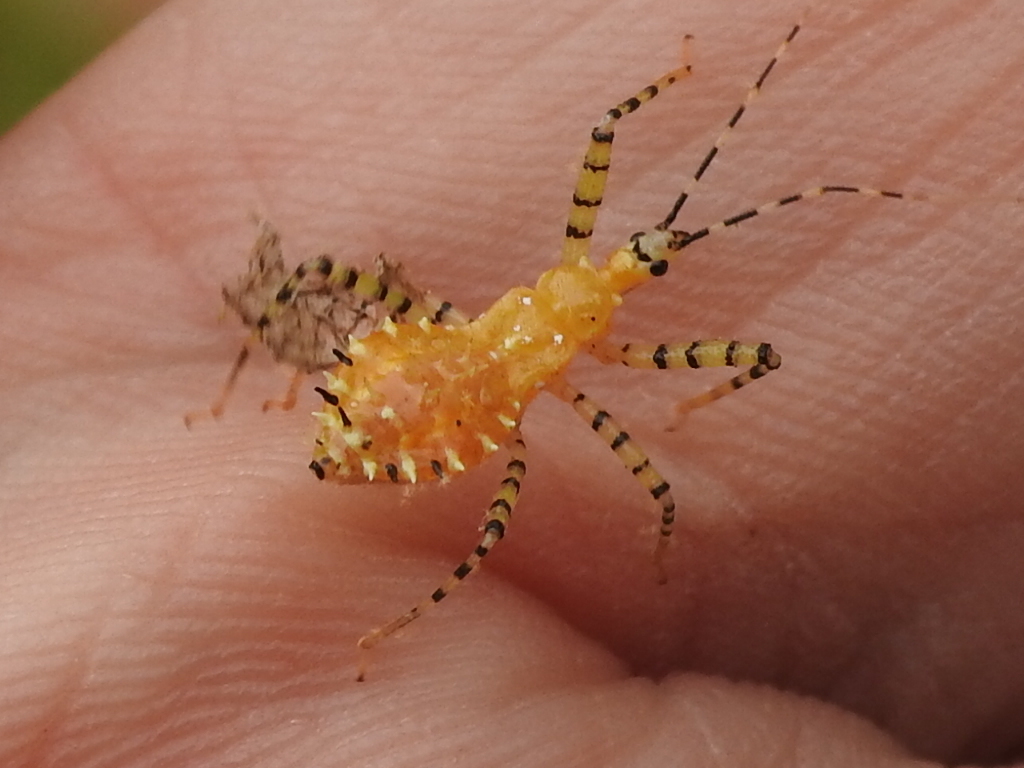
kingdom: Animalia
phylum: Arthropoda
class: Insecta
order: Hemiptera
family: Reduviidae
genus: Pselliopus
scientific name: Pselliopus barberi
